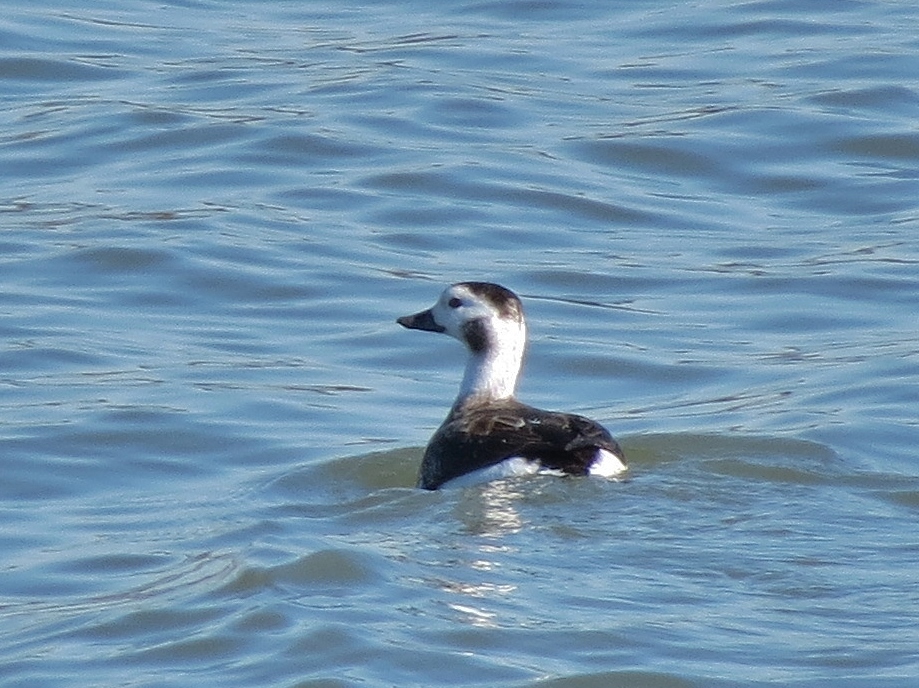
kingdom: Animalia
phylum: Chordata
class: Aves
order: Anseriformes
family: Anatidae
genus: Clangula
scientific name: Clangula hyemalis
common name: Long-tailed duck
